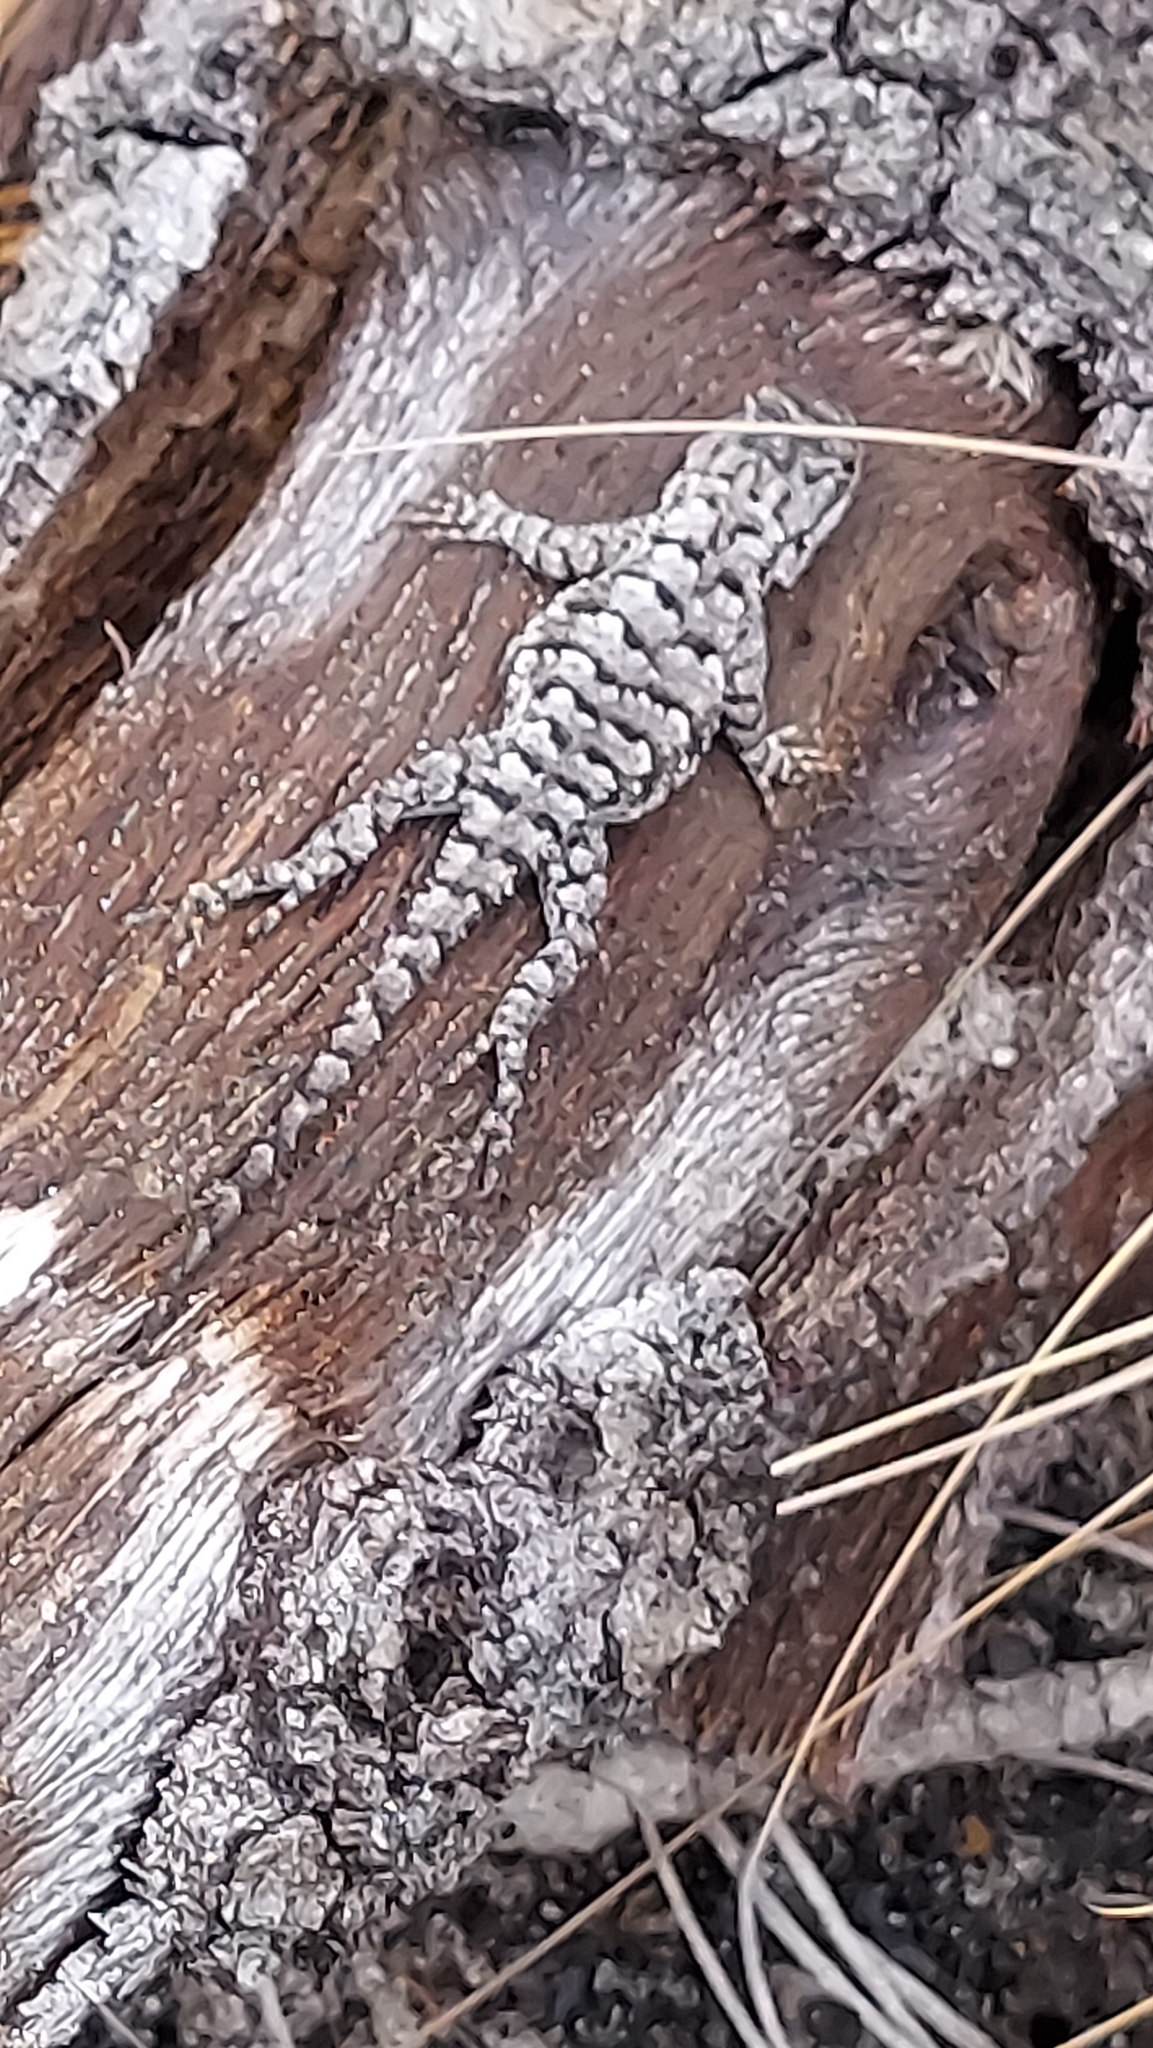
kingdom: Animalia
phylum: Chordata
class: Squamata
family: Phrynosomatidae
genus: Sceloporus
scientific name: Sceloporus undulatus
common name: Eastern fence lizard
